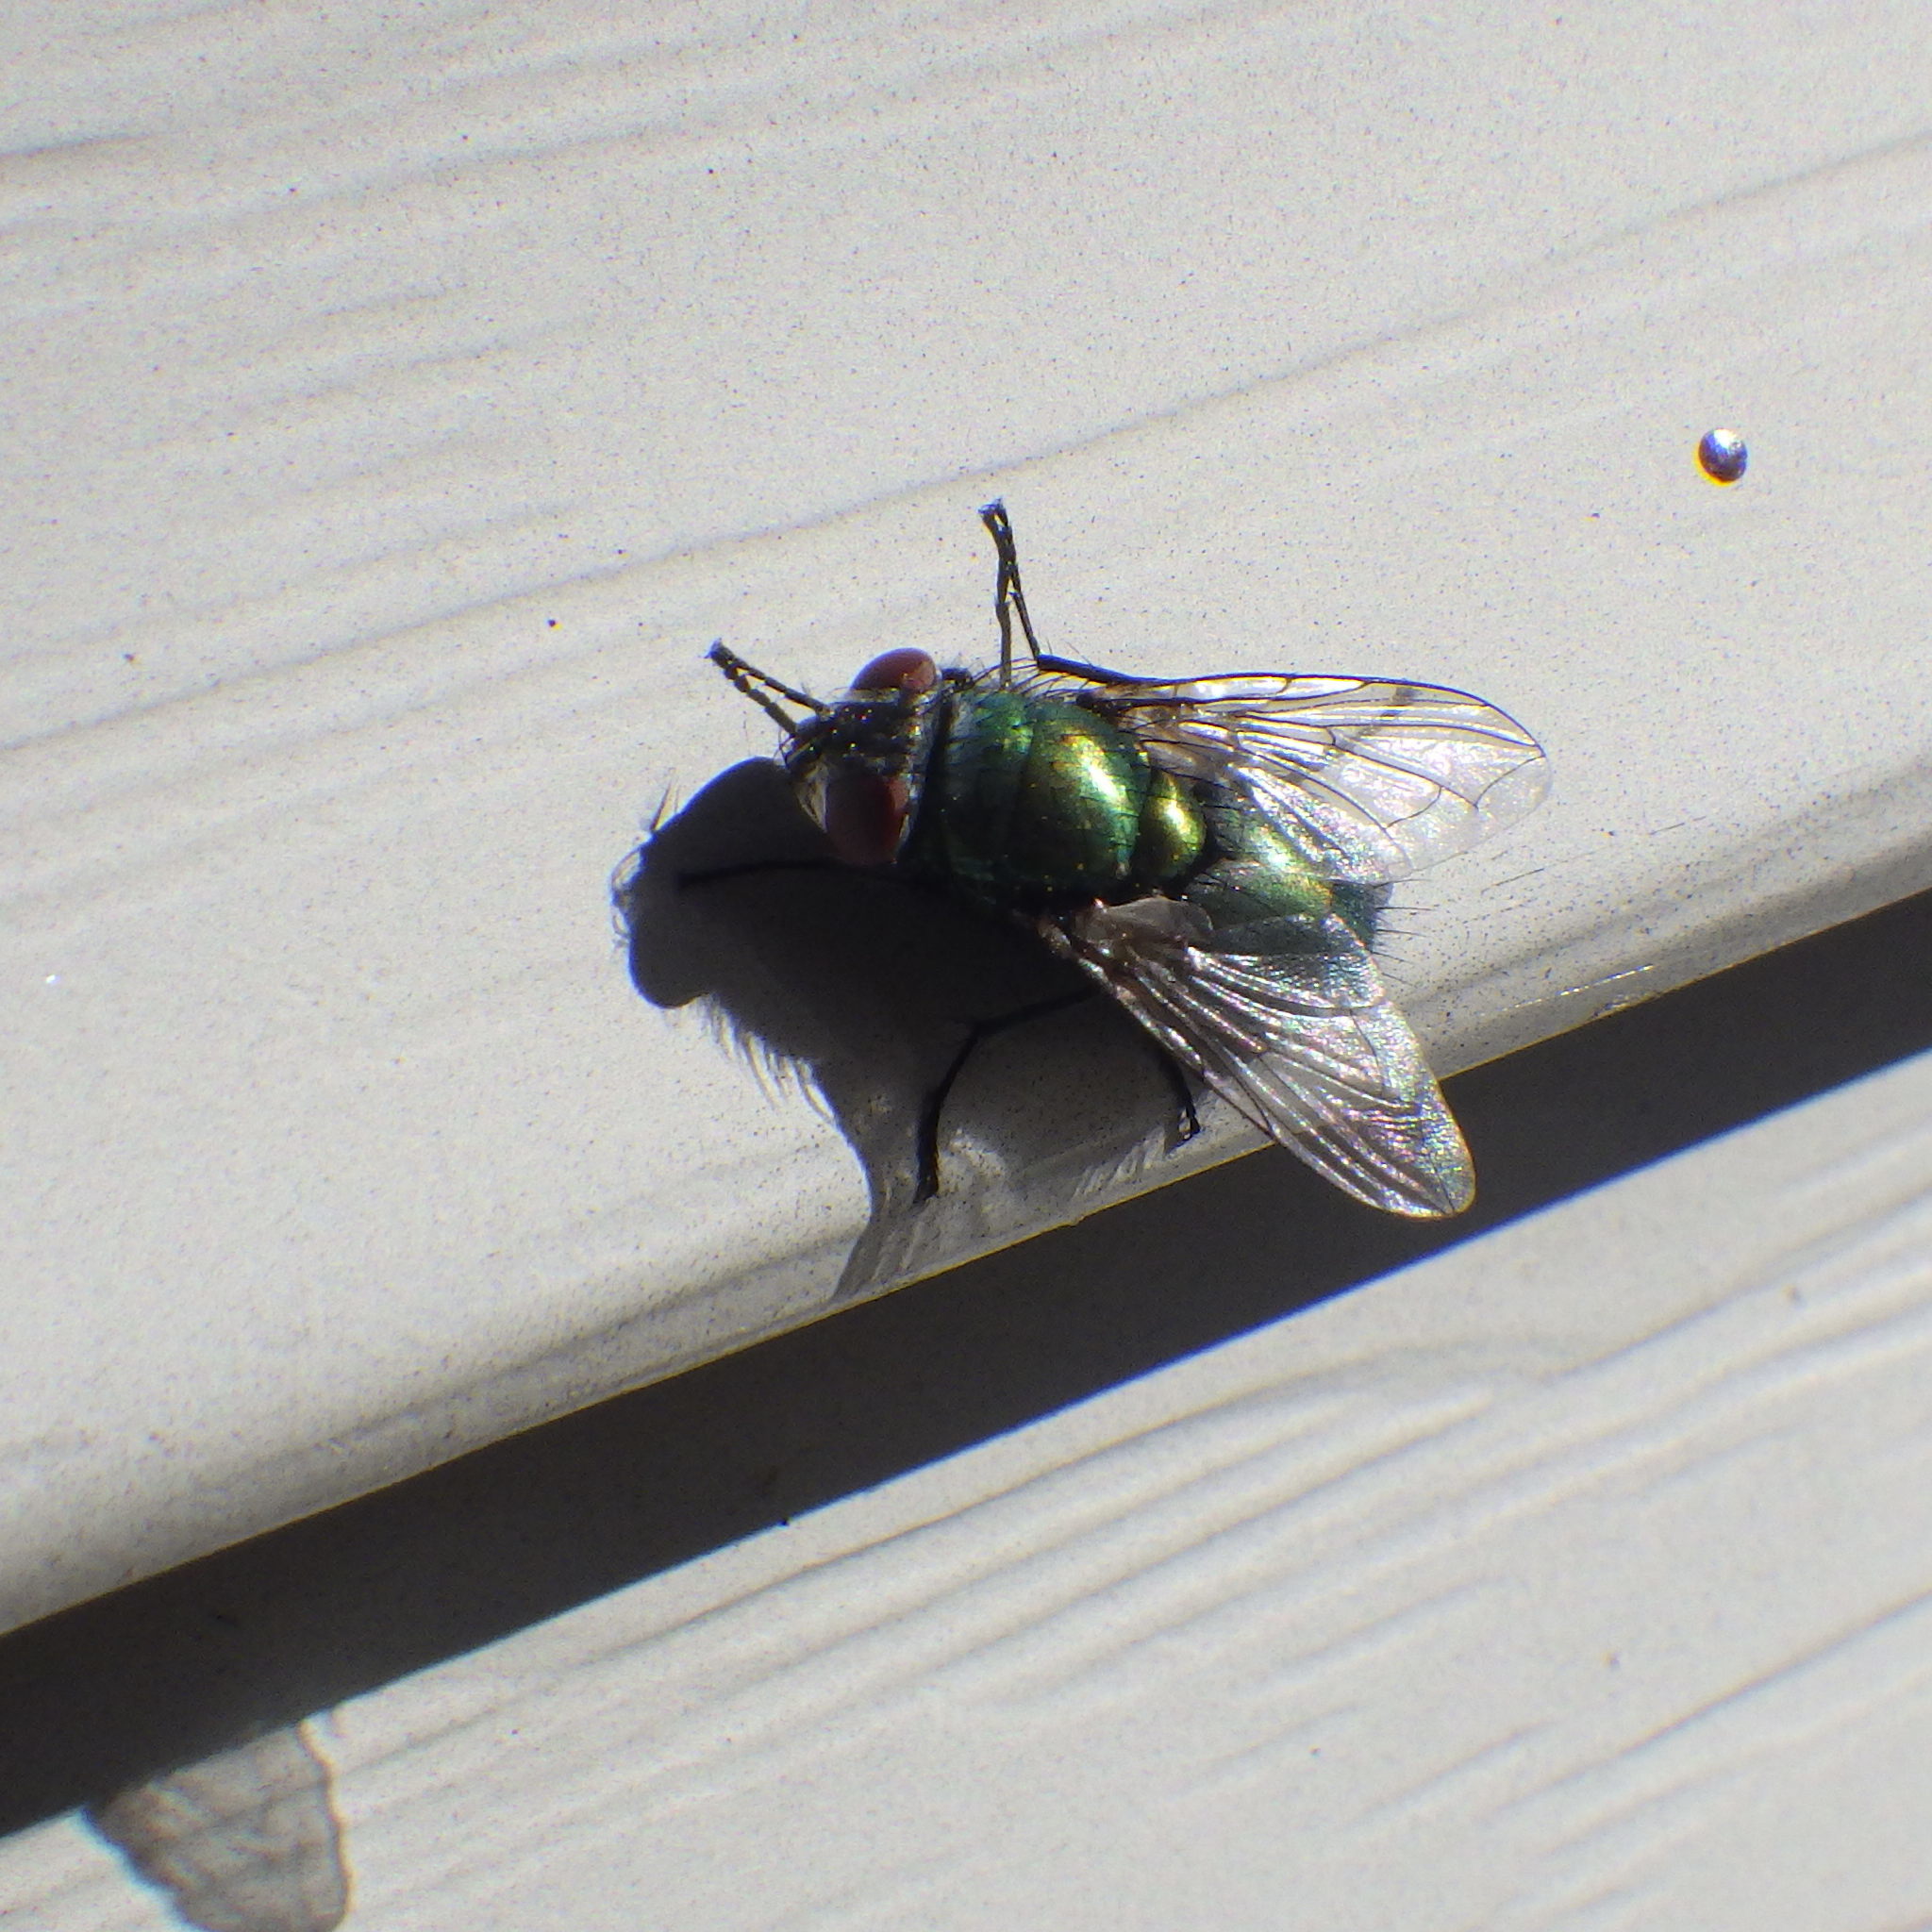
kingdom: Animalia
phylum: Arthropoda
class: Insecta
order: Diptera
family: Calliphoridae
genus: Lucilia
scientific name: Lucilia sericata
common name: Blow fly
